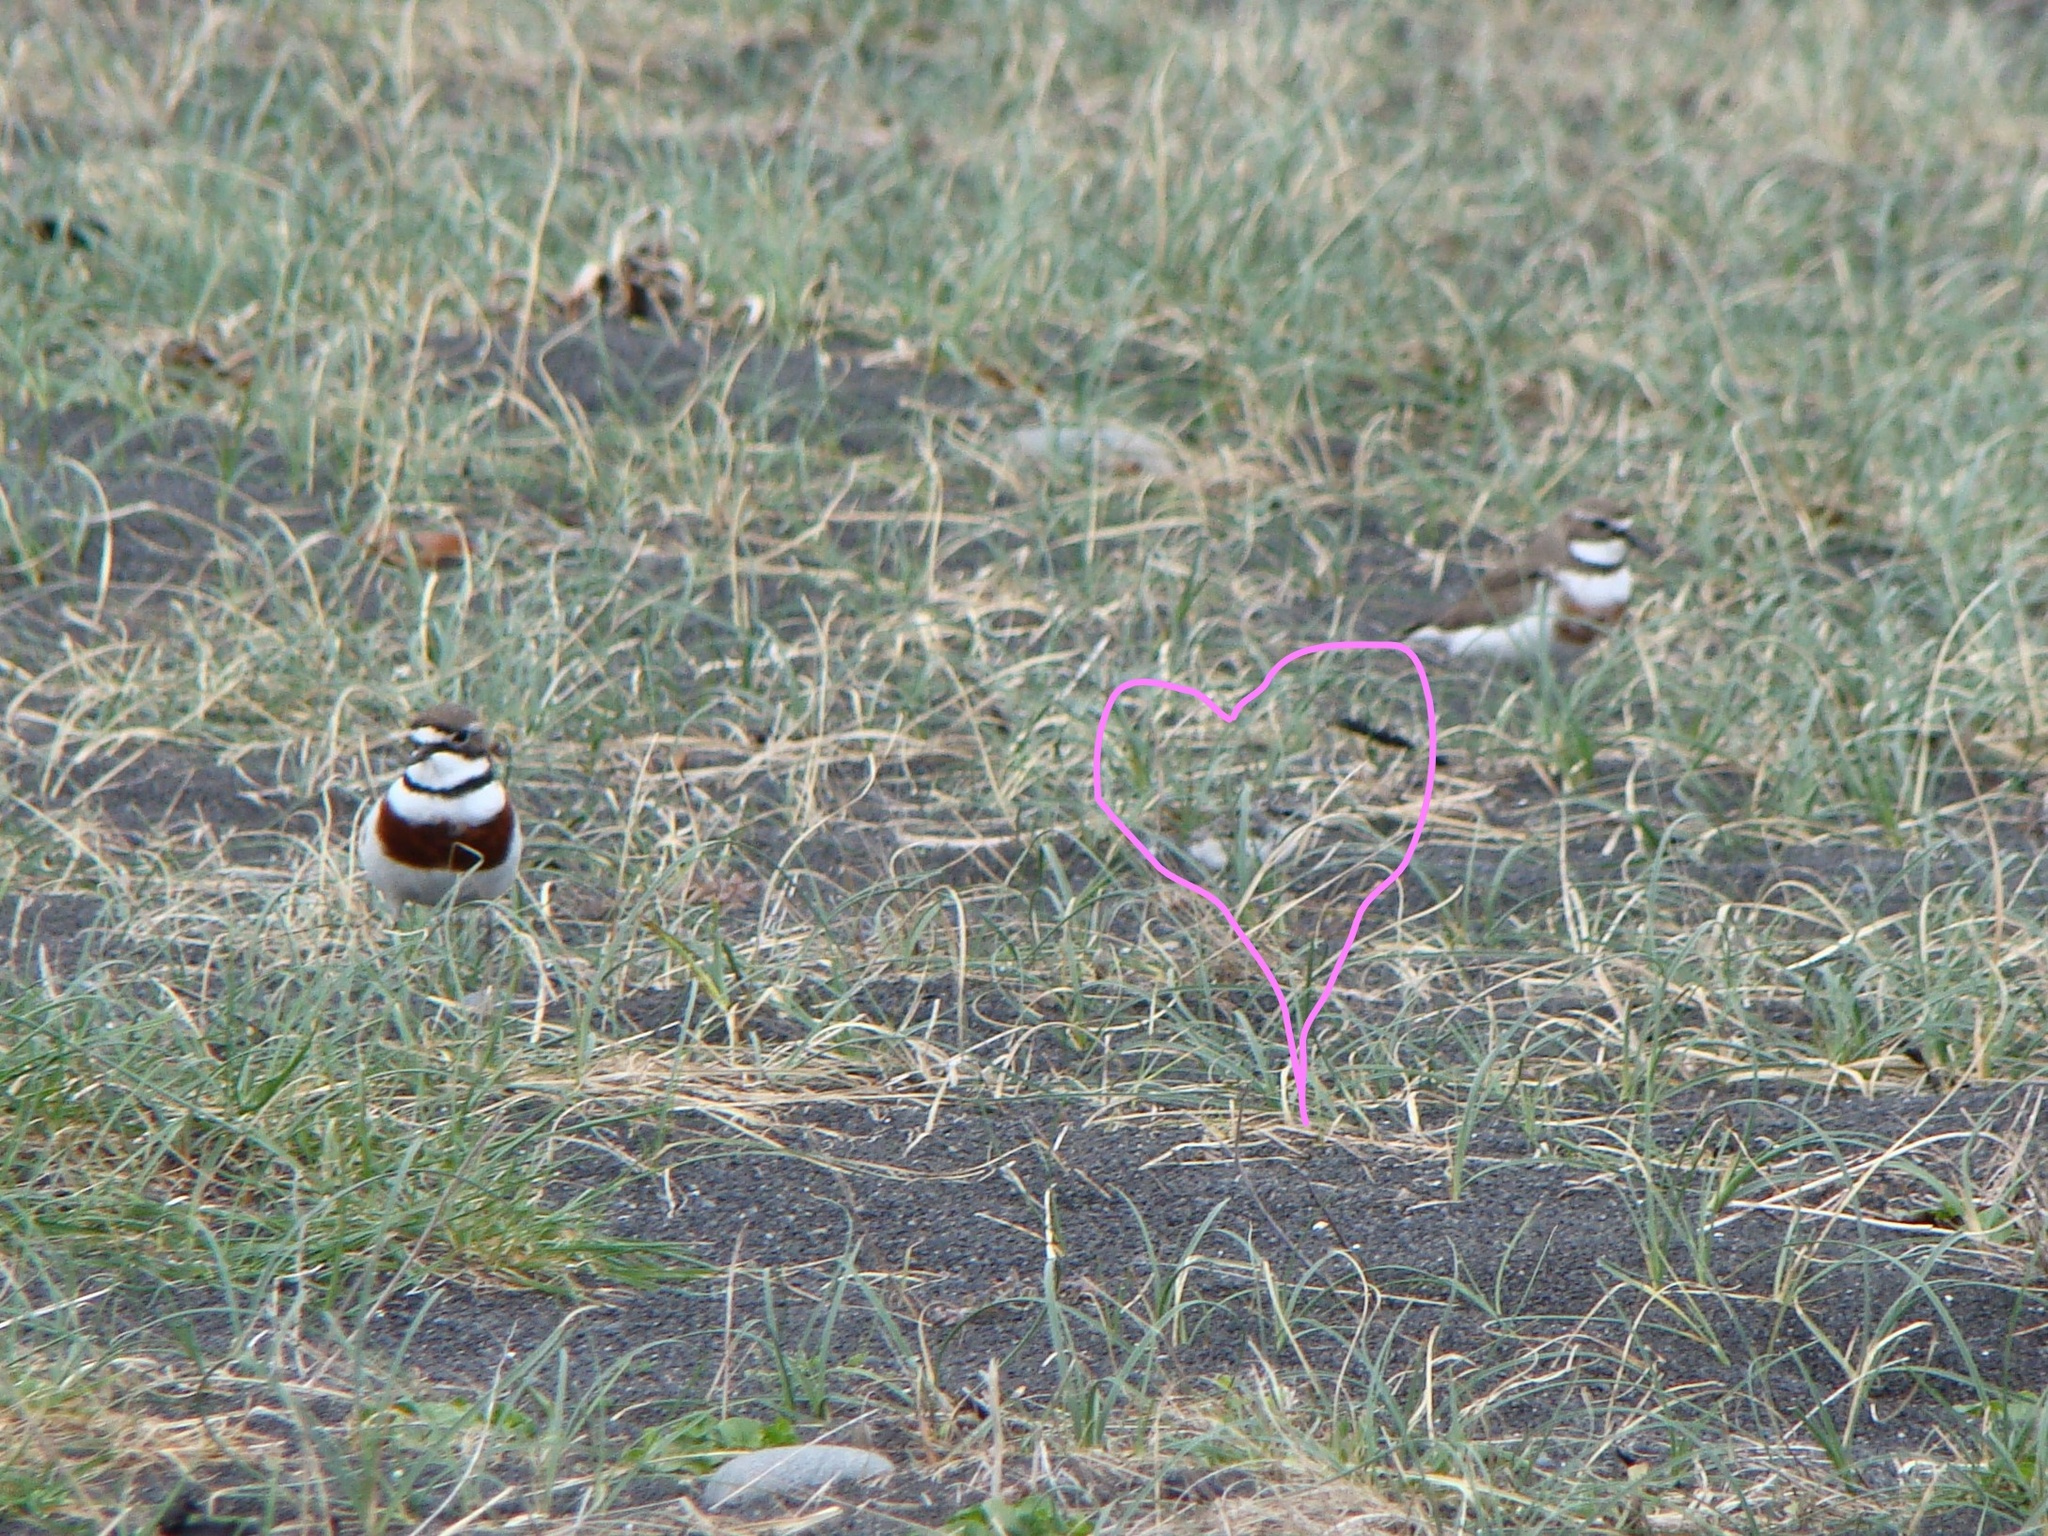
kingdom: Animalia
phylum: Chordata
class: Aves
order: Charadriiformes
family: Charadriidae
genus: Anarhynchus
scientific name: Anarhynchus
